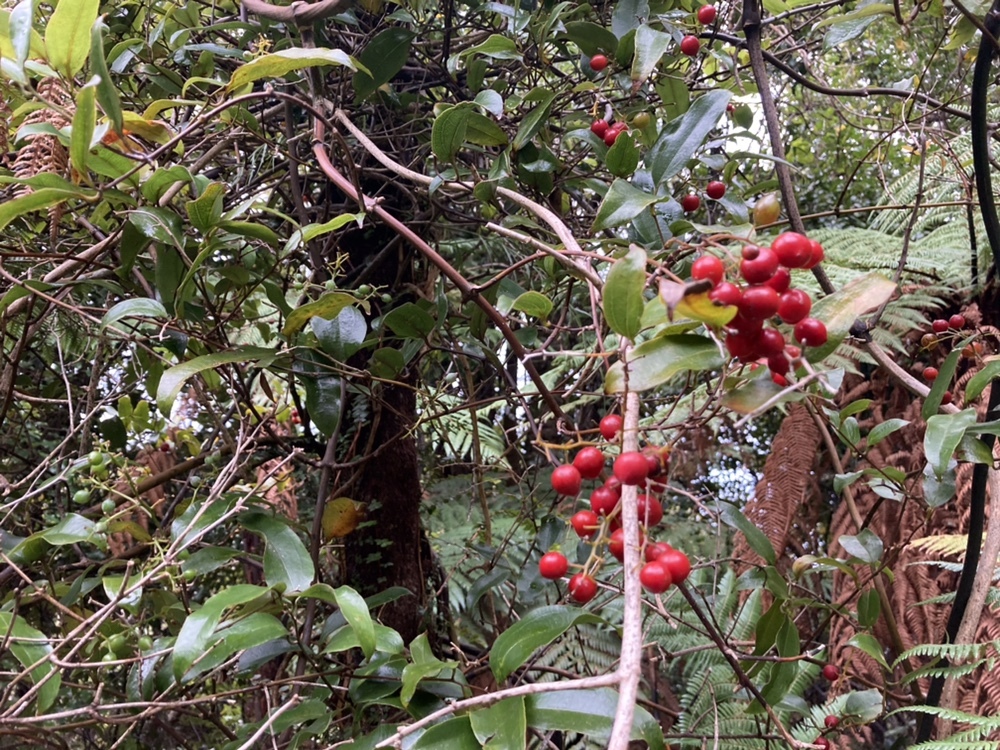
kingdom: Plantae
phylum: Tracheophyta
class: Liliopsida
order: Liliales
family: Ripogonaceae
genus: Ripogonum
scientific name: Ripogonum scandens
